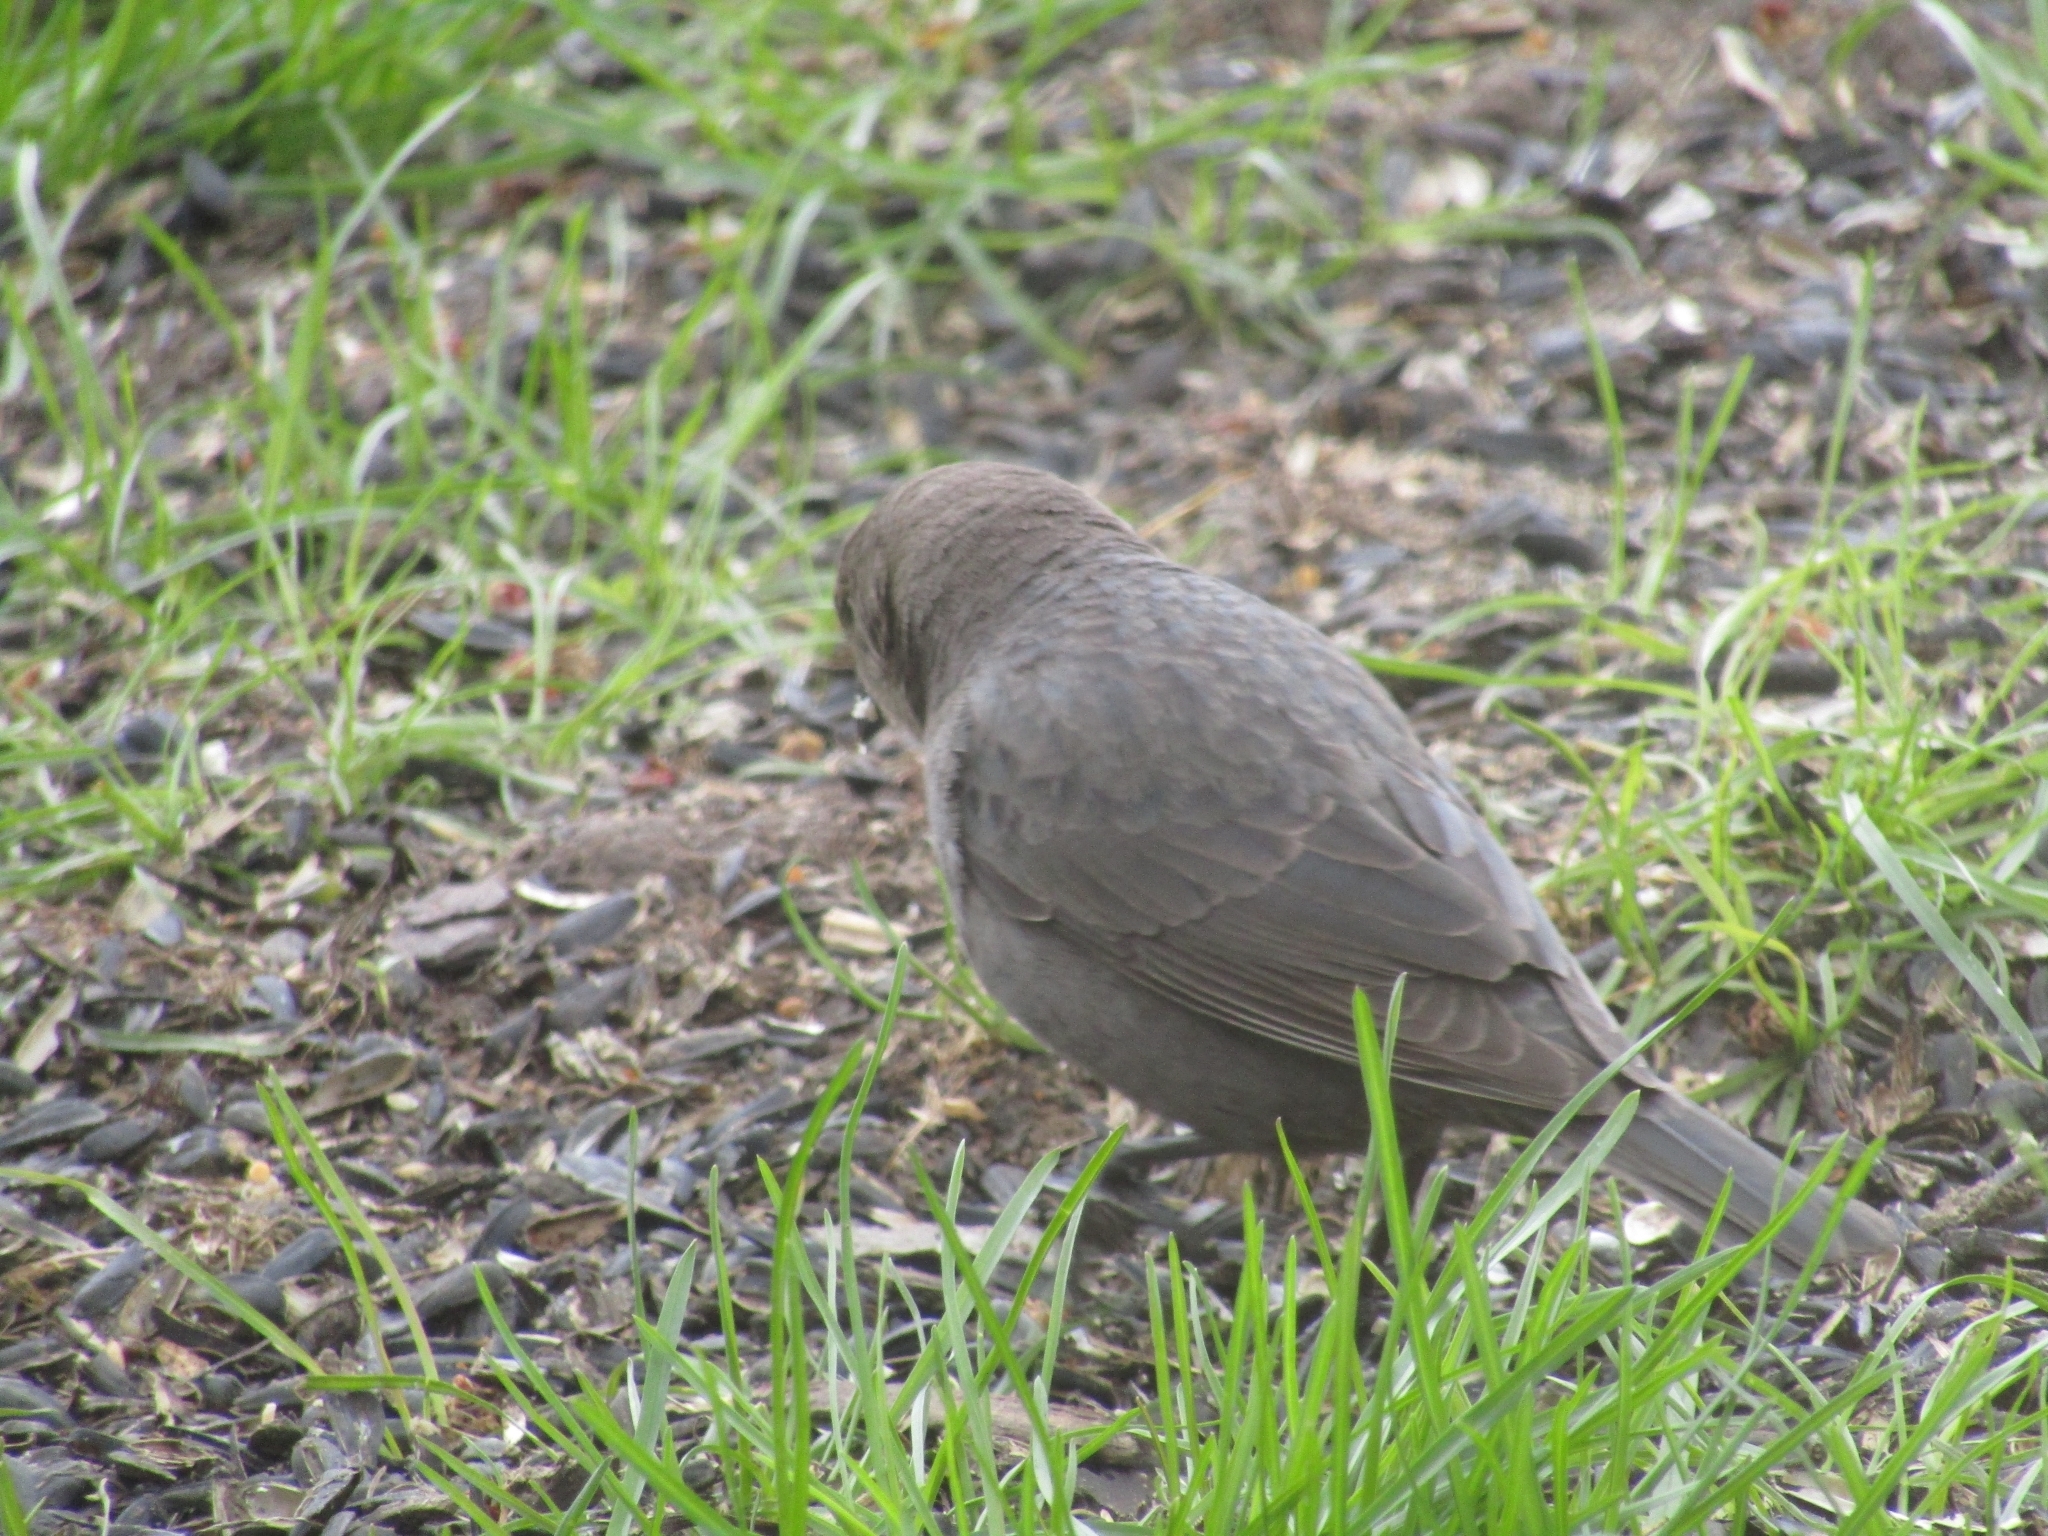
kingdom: Animalia
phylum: Chordata
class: Aves
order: Passeriformes
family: Icteridae
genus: Molothrus
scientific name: Molothrus ater
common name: Brown-headed cowbird
